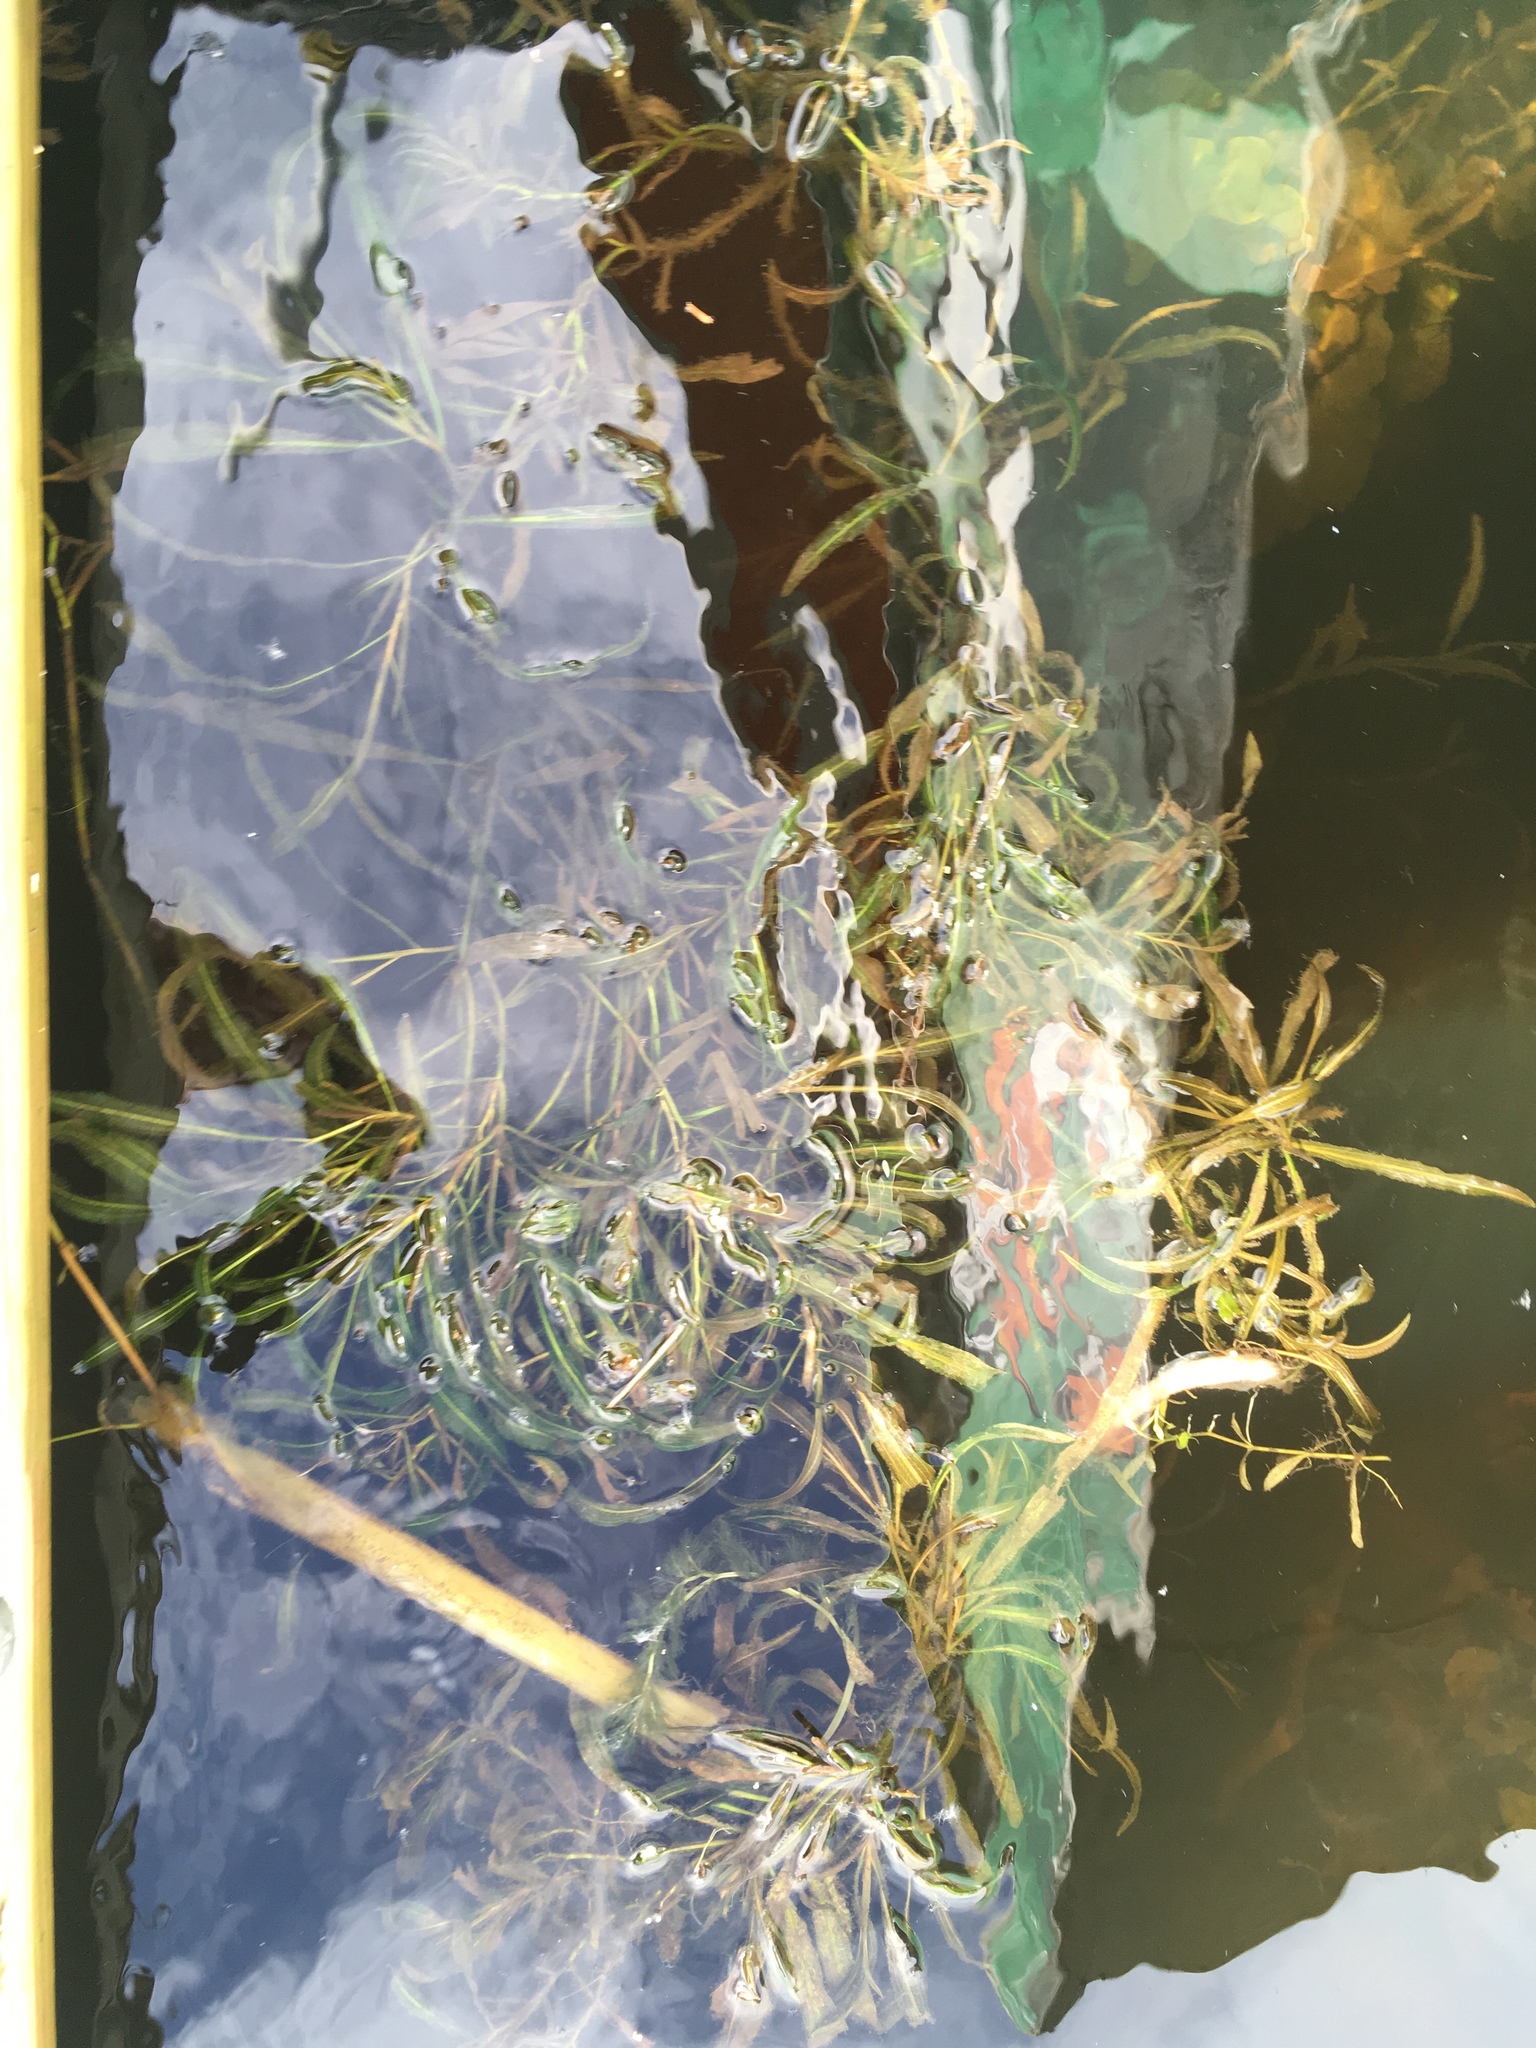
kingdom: Plantae
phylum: Tracheophyta
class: Liliopsida
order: Alismatales
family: Potamogetonaceae
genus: Potamogeton
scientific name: Potamogeton illinoensis
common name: Illinois pondweed
